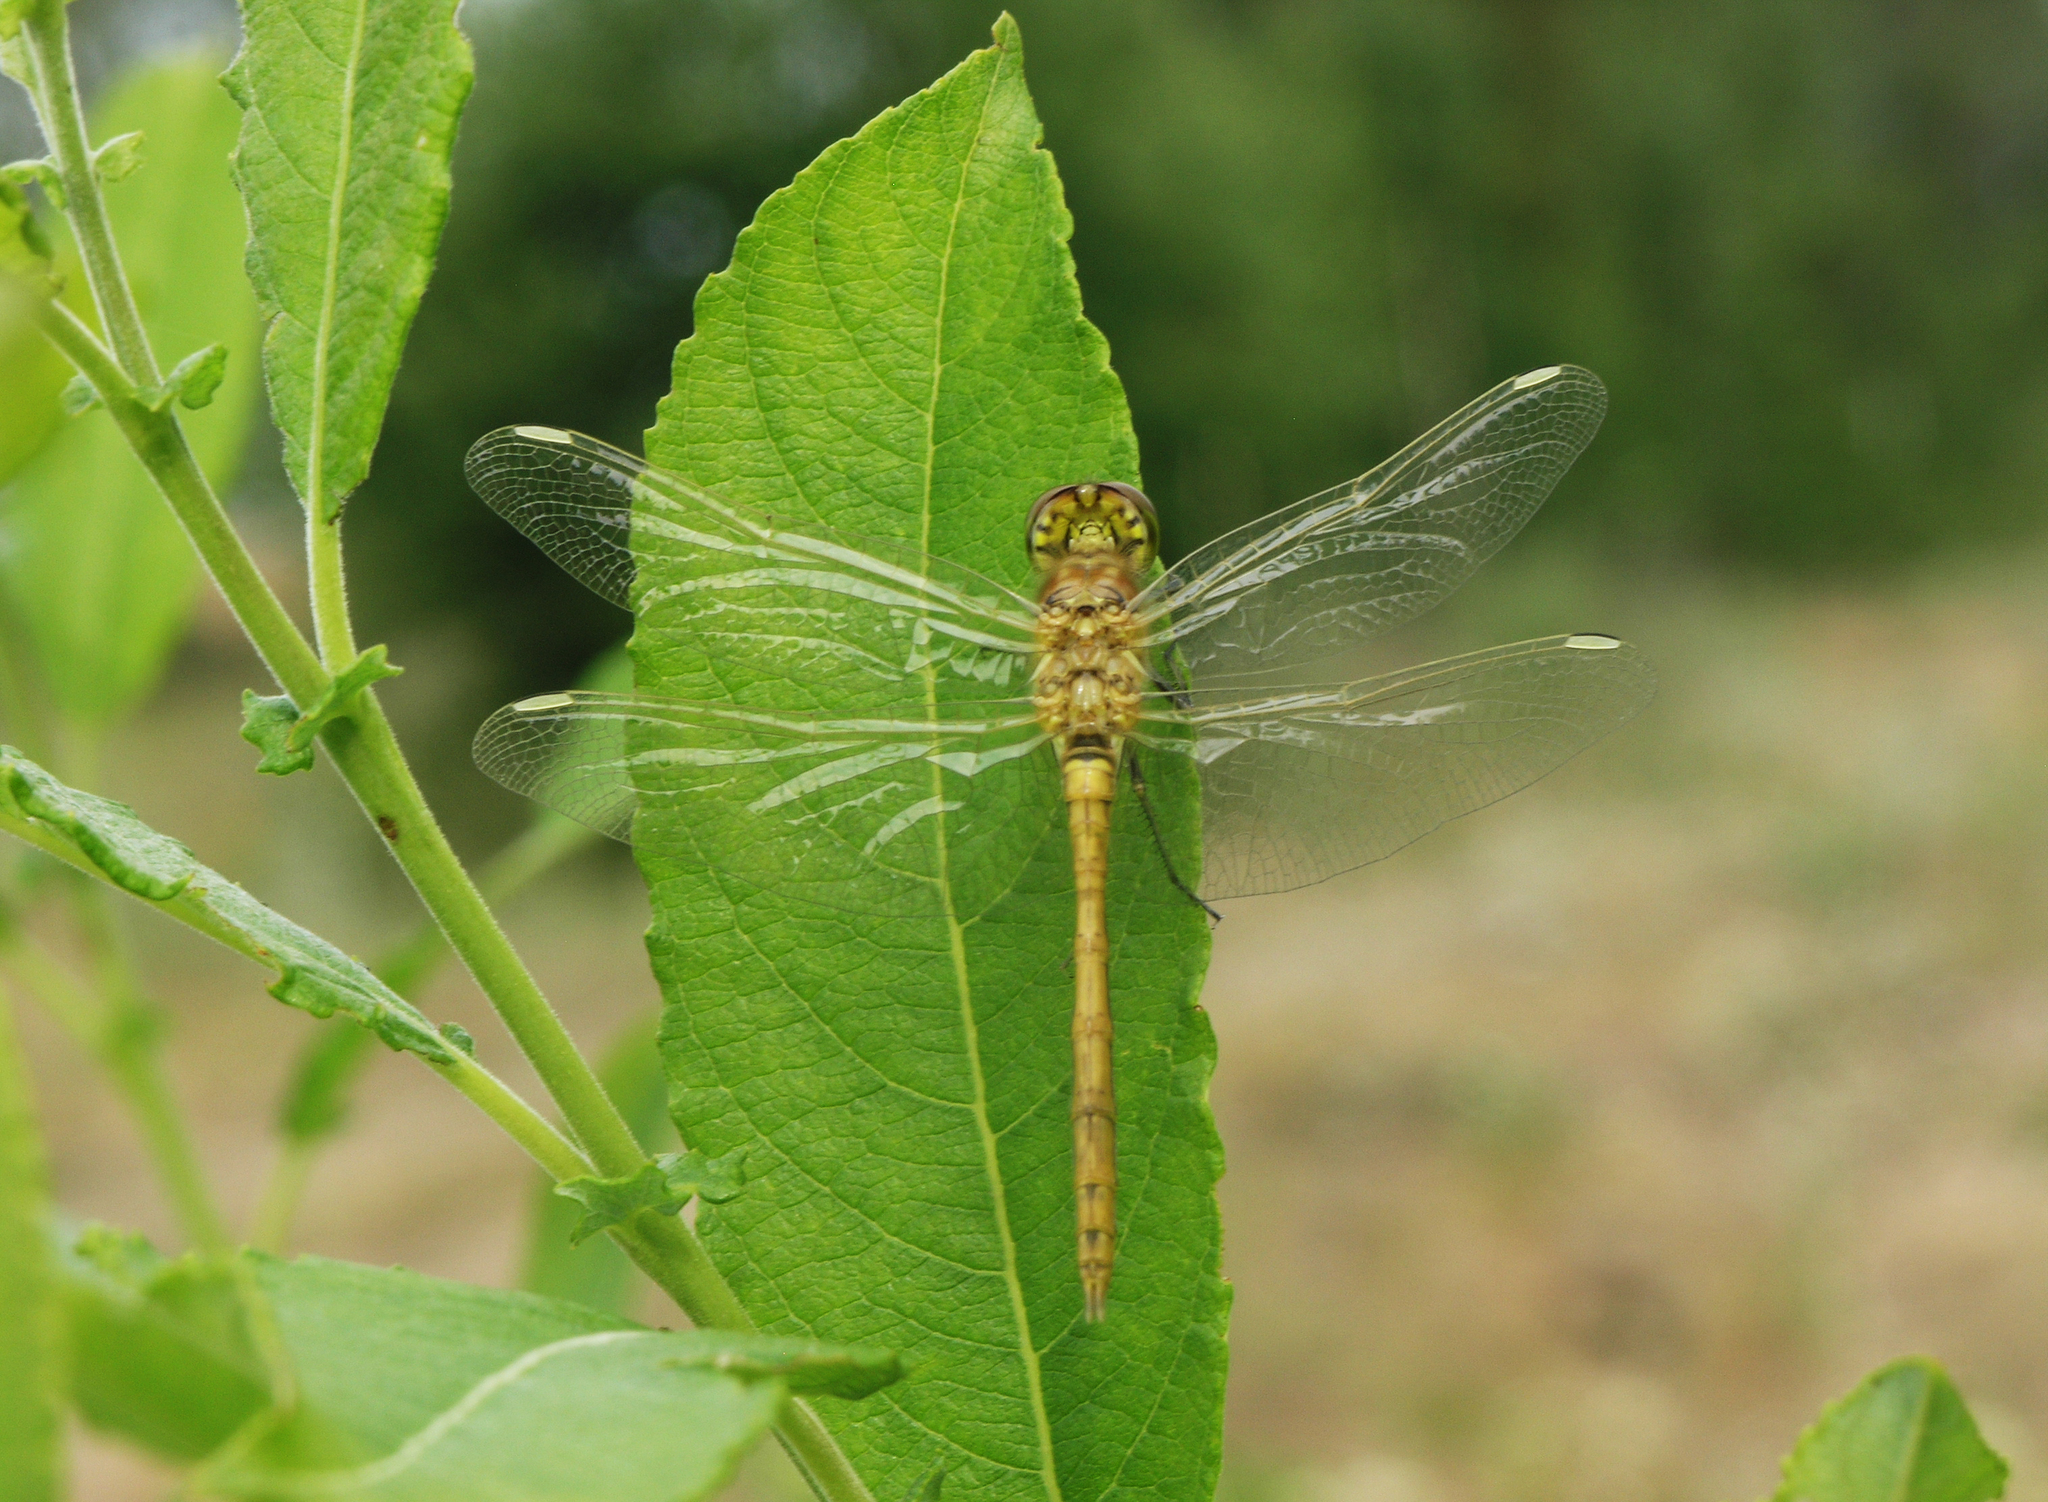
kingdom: Animalia
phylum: Arthropoda
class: Insecta
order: Odonata
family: Libellulidae
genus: Sympetrum
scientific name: Sympetrum vulgatum
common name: Vagrant darter
